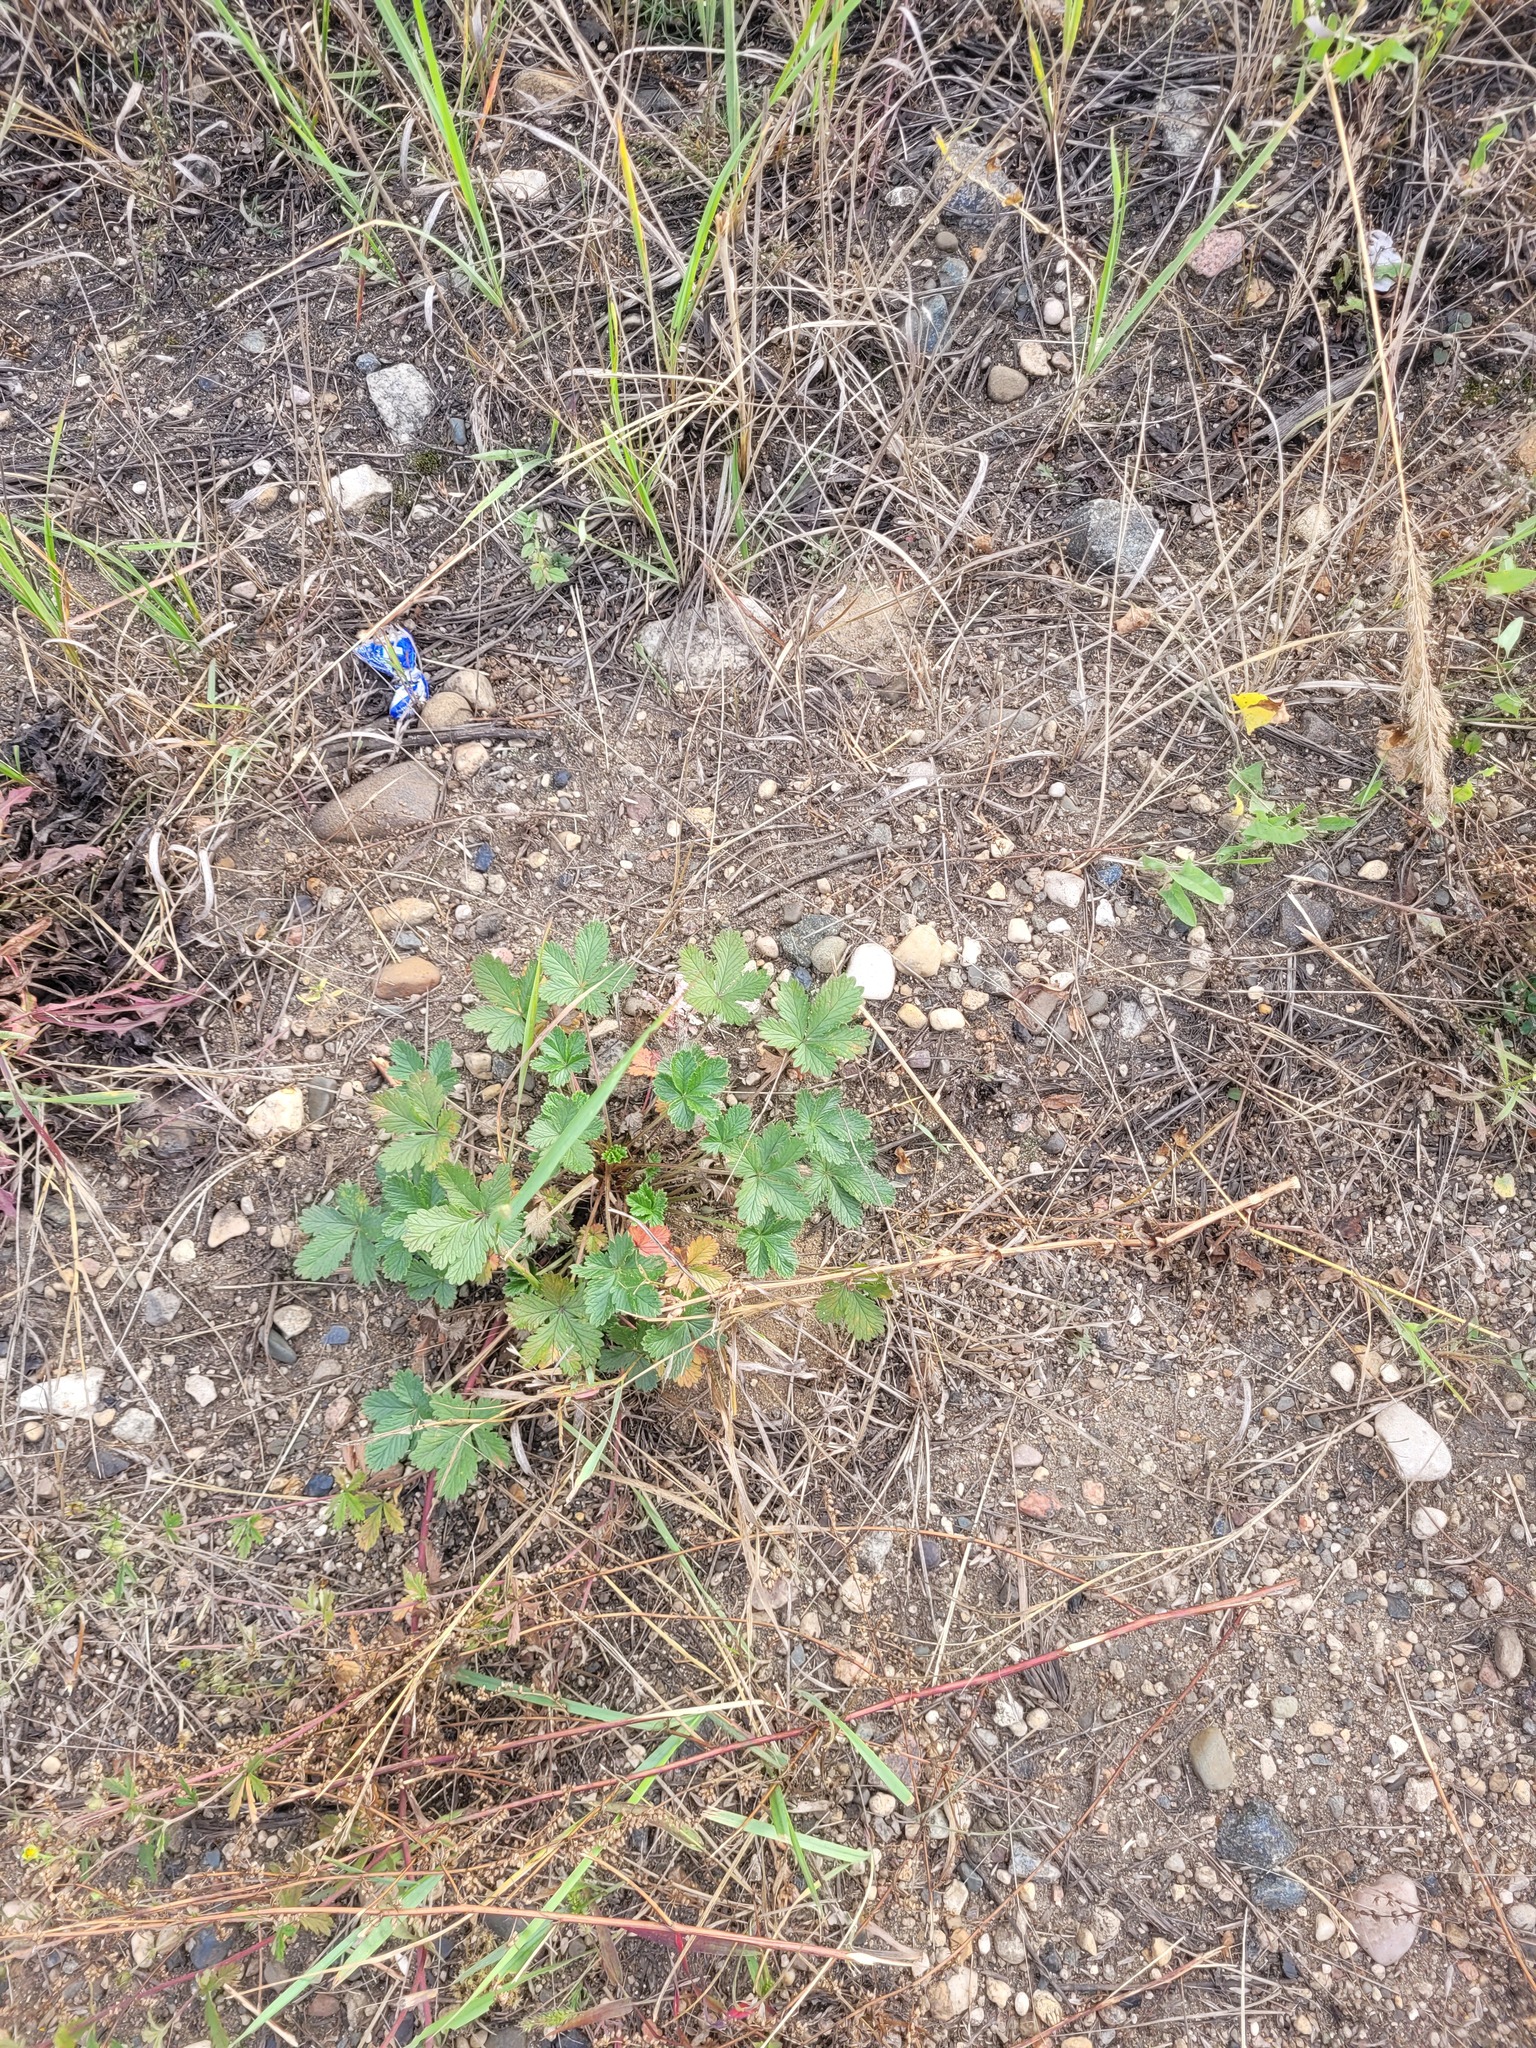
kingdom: Plantae
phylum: Tracheophyta
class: Magnoliopsida
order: Rosales
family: Rosaceae
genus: Potentilla
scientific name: Potentilla intermedia
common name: Downy cinquefoil
